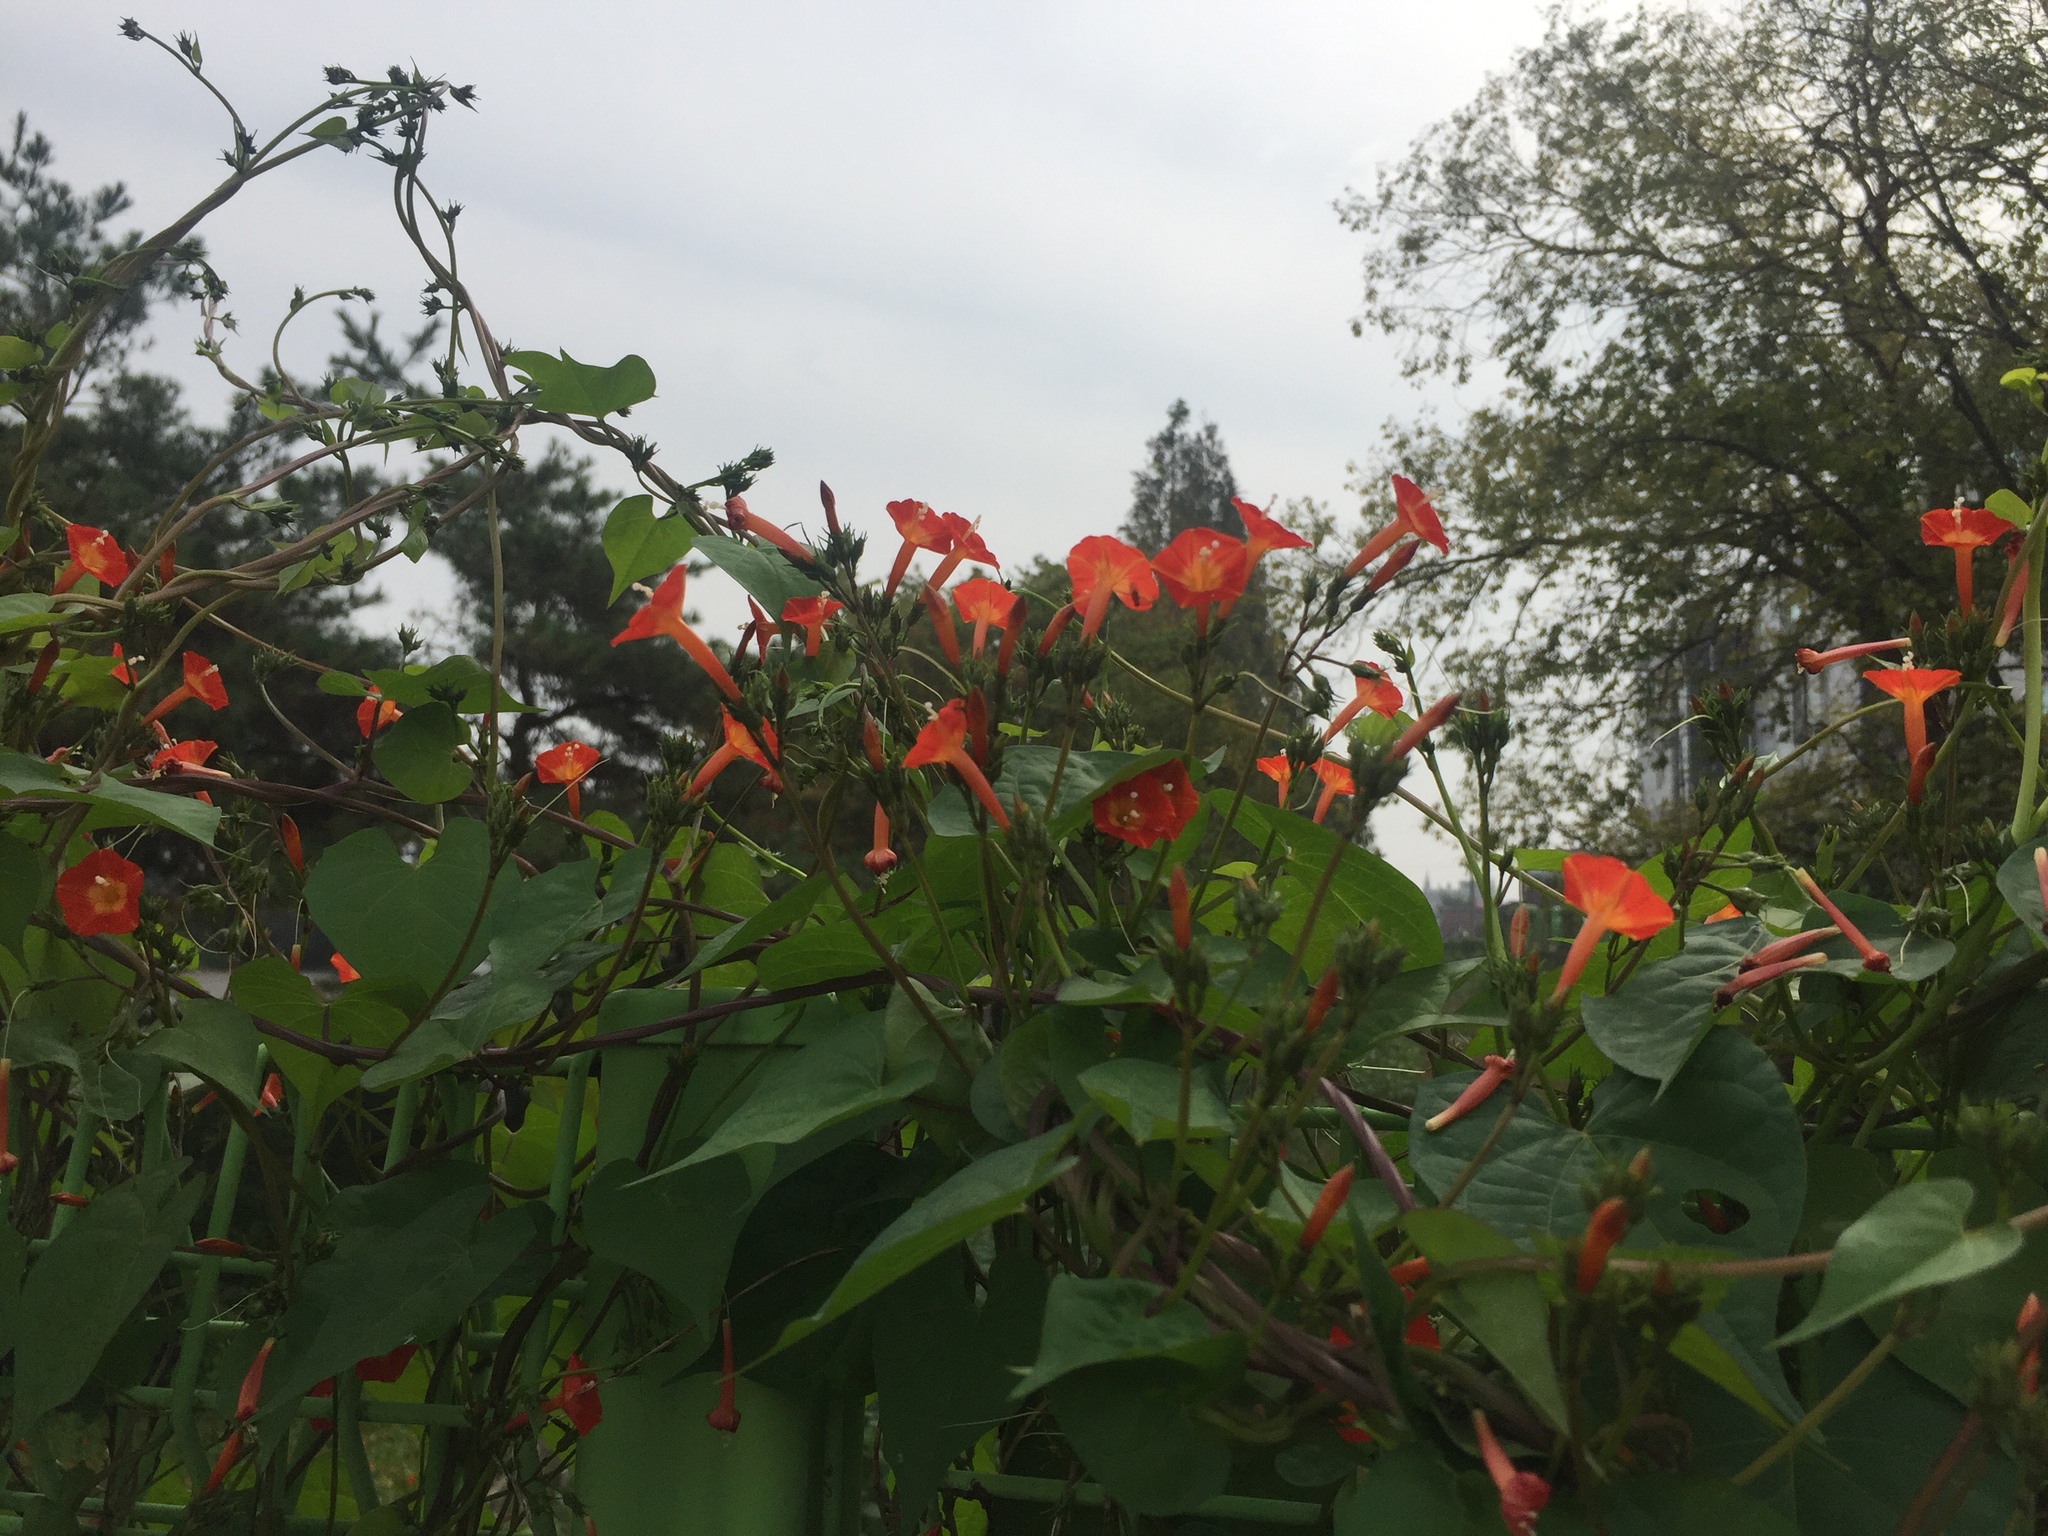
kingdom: Plantae
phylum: Tracheophyta
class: Magnoliopsida
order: Solanales
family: Convolvulaceae
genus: Ipomoea
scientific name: Ipomoea coccinea
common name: Red morning-glory
